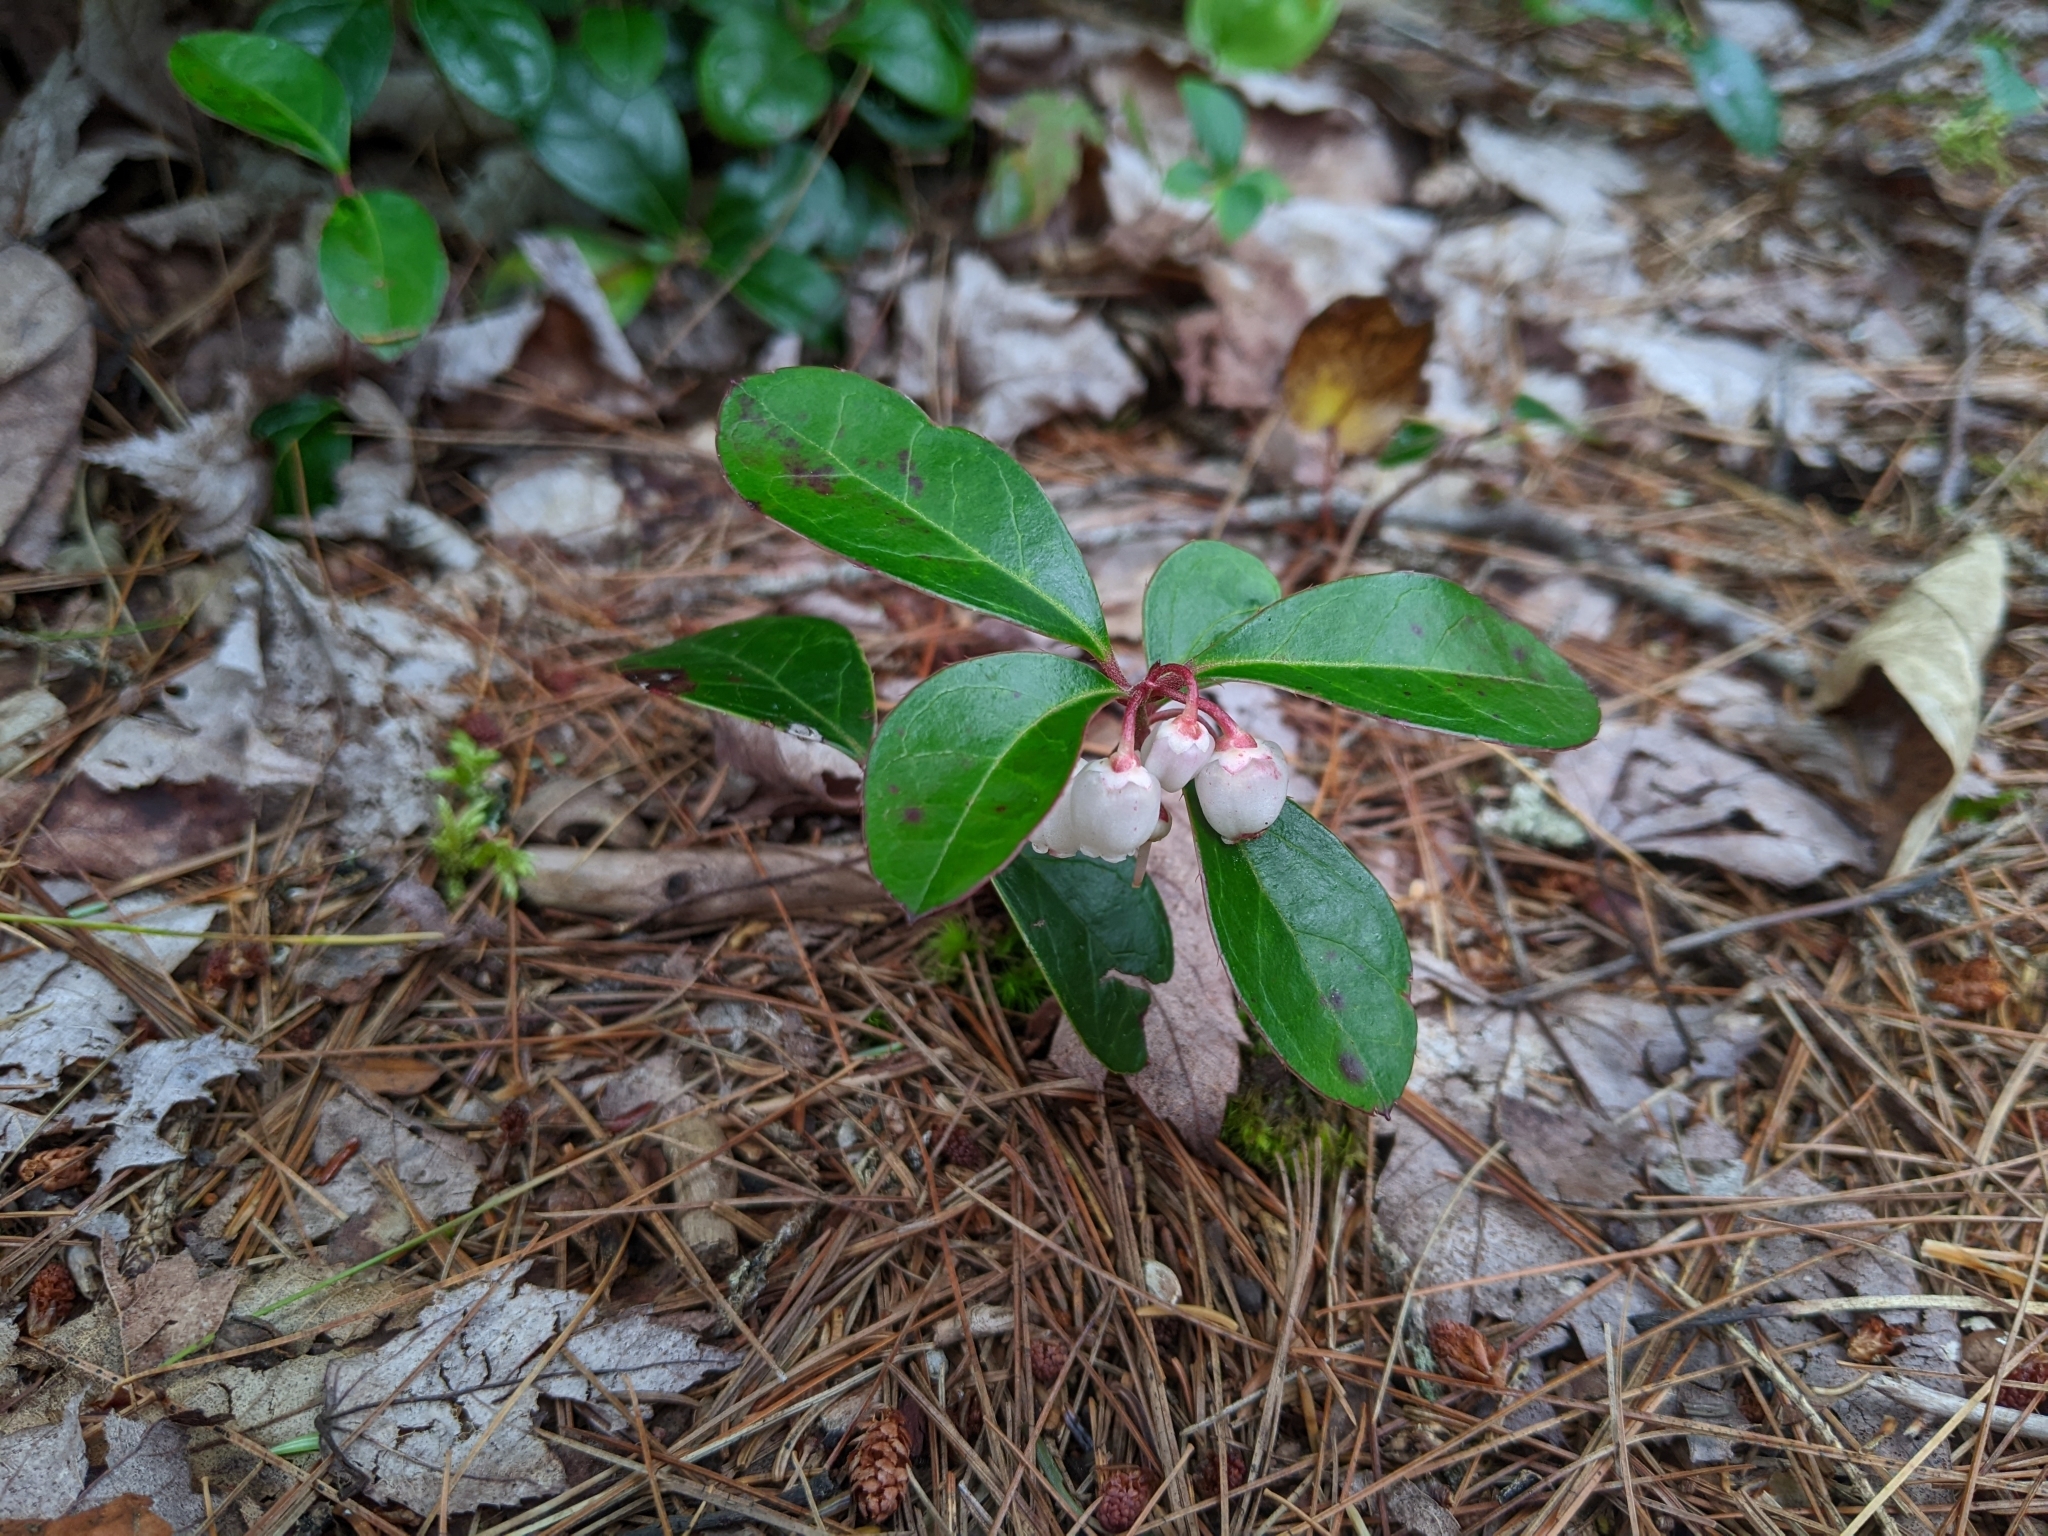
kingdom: Plantae
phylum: Tracheophyta
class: Magnoliopsida
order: Ericales
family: Ericaceae
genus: Gaultheria
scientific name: Gaultheria procumbens
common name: Checkerberry
